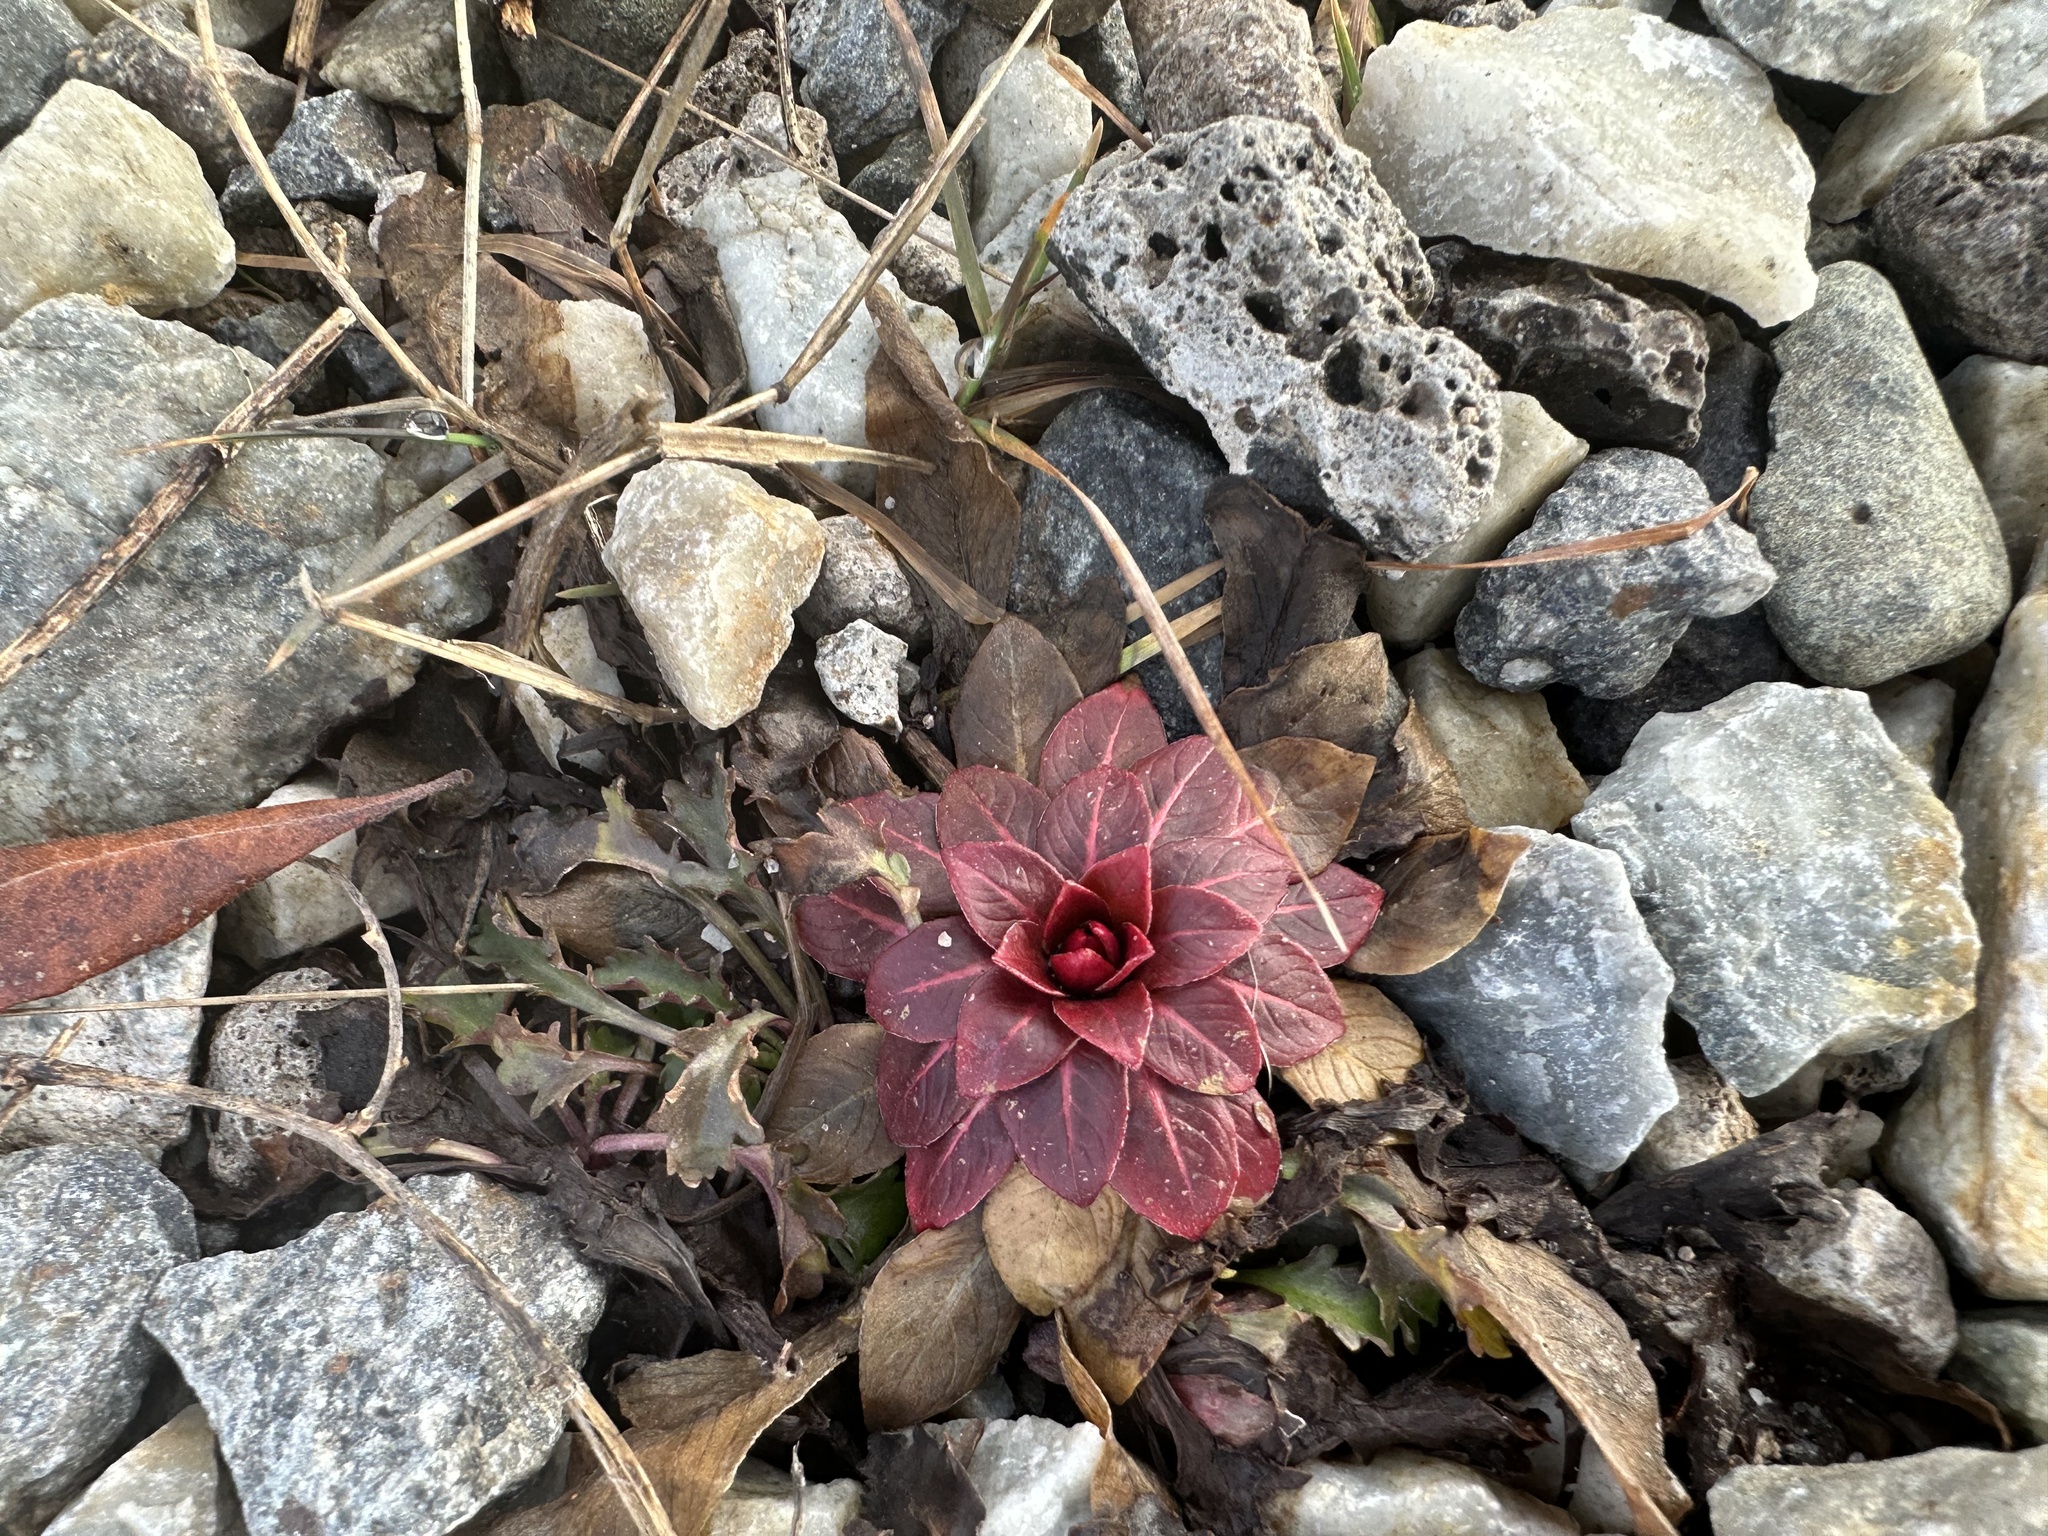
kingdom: Plantae
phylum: Tracheophyta
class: Magnoliopsida
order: Myrtales
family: Onagraceae
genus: Oenothera
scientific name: Oenothera biennis
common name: Common evening-primrose
